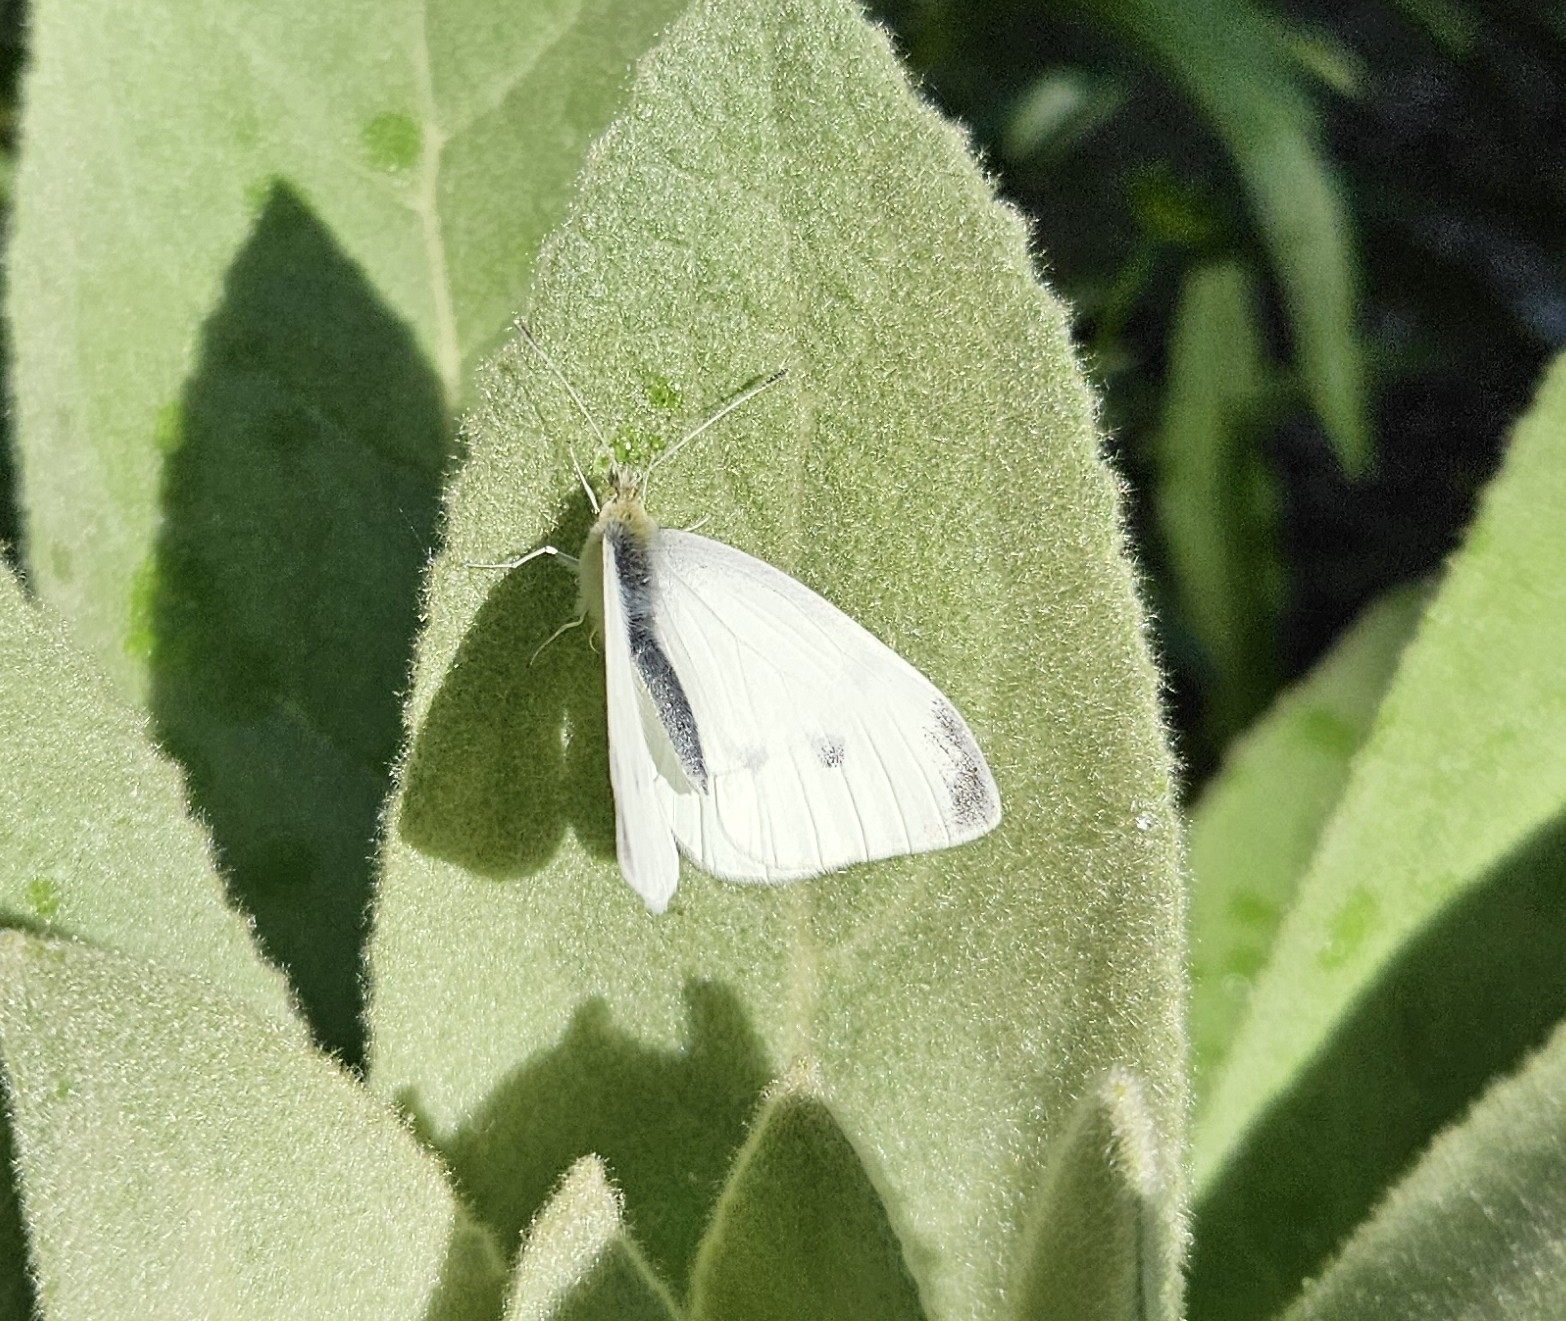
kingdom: Animalia
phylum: Arthropoda
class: Insecta
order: Lepidoptera
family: Pieridae
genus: Pieris
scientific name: Pieris rapae
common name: Small white
